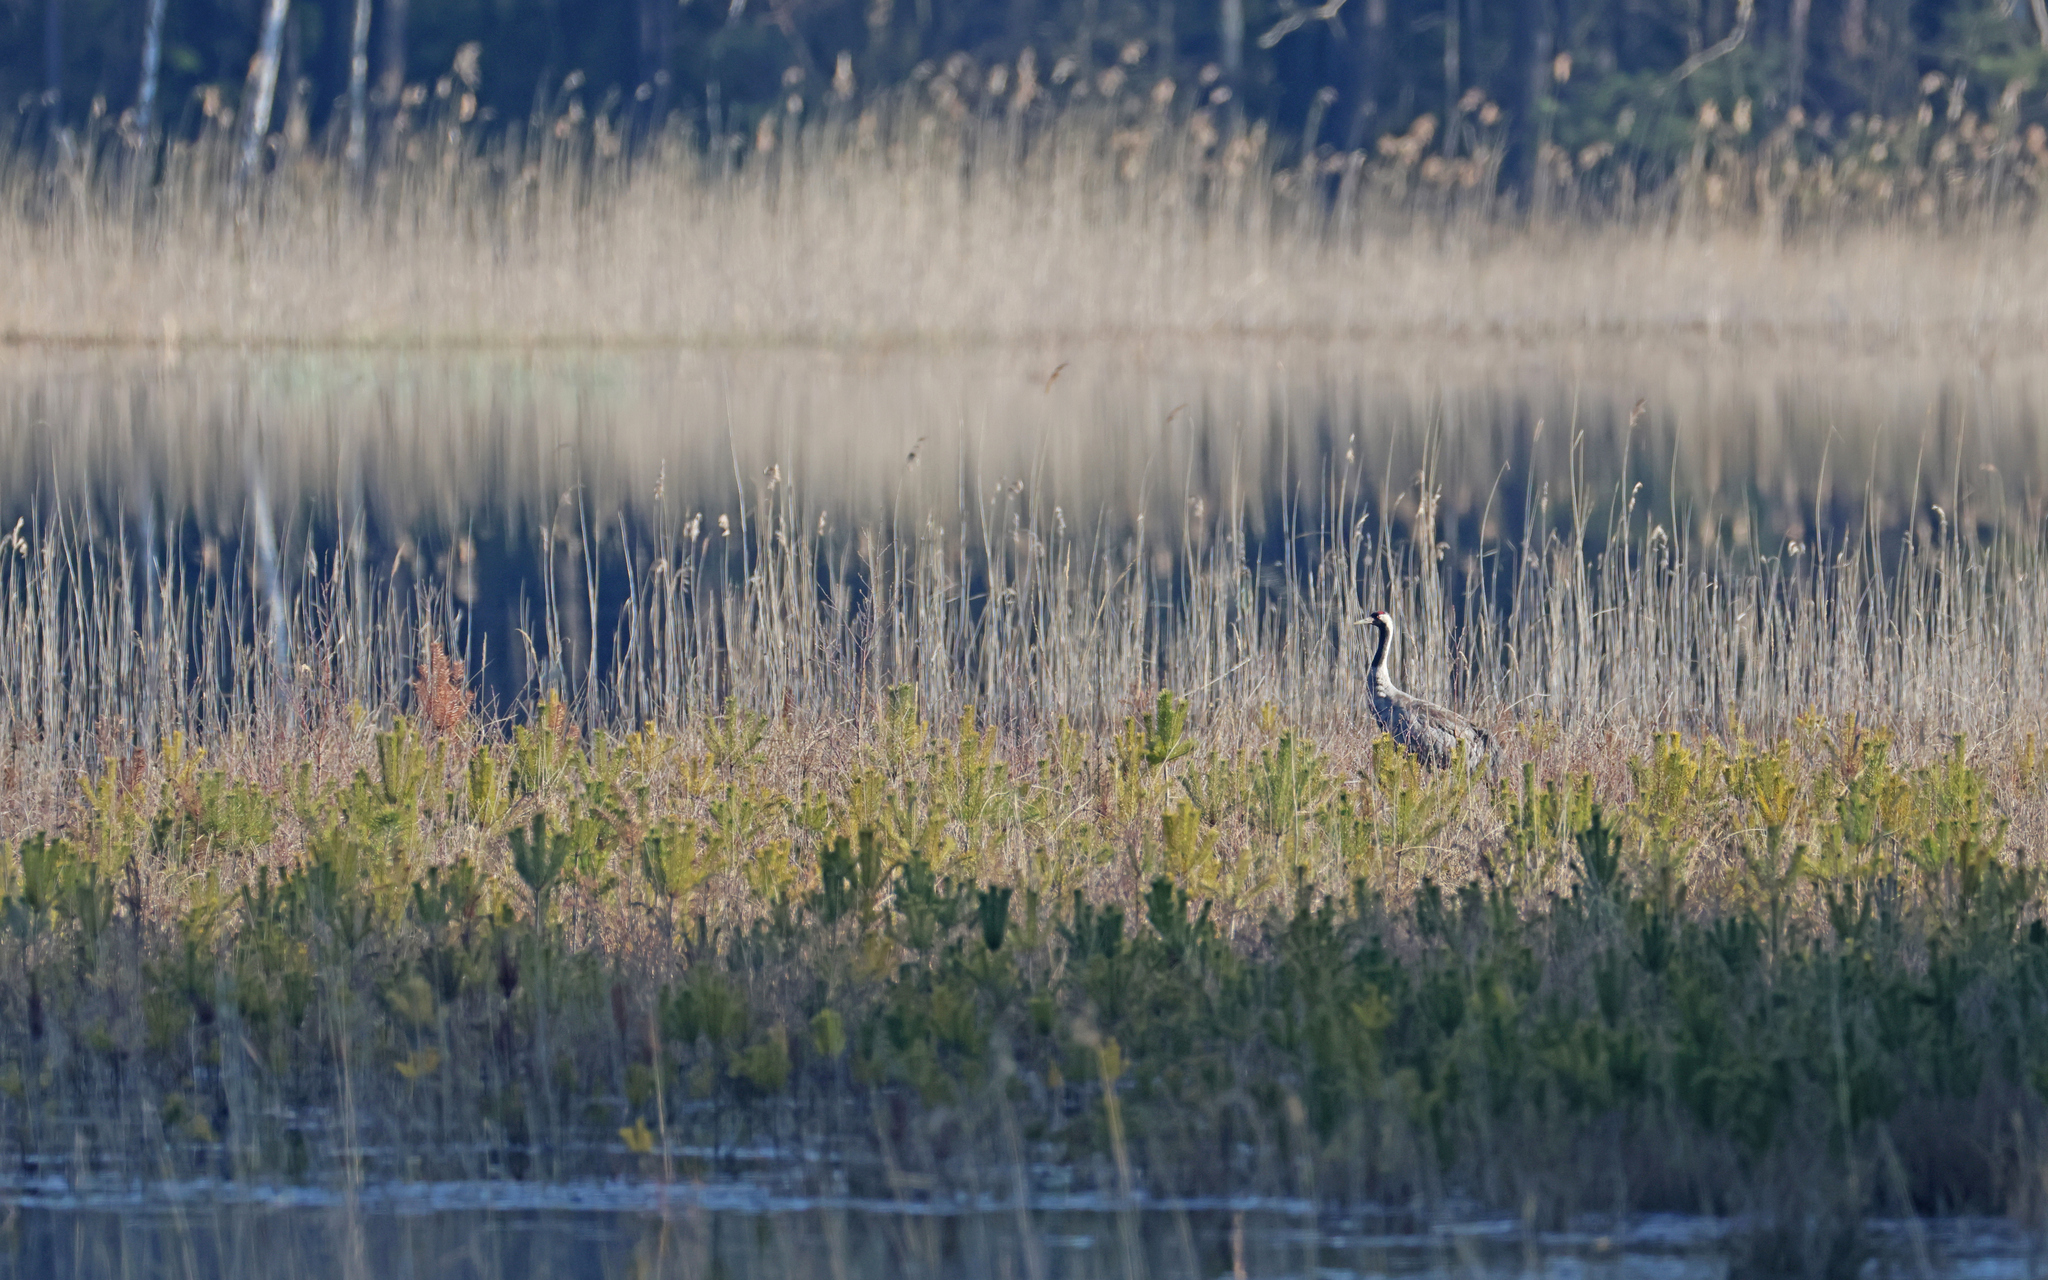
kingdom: Animalia
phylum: Chordata
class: Aves
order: Gruiformes
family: Gruidae
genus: Grus
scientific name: Grus grus
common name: Common crane
